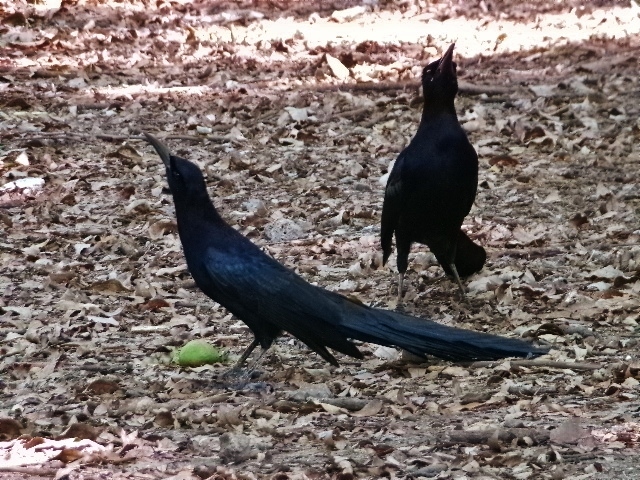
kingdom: Animalia
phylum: Chordata
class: Aves
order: Passeriformes
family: Icteridae
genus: Quiscalus
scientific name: Quiscalus mexicanus
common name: Great-tailed grackle
